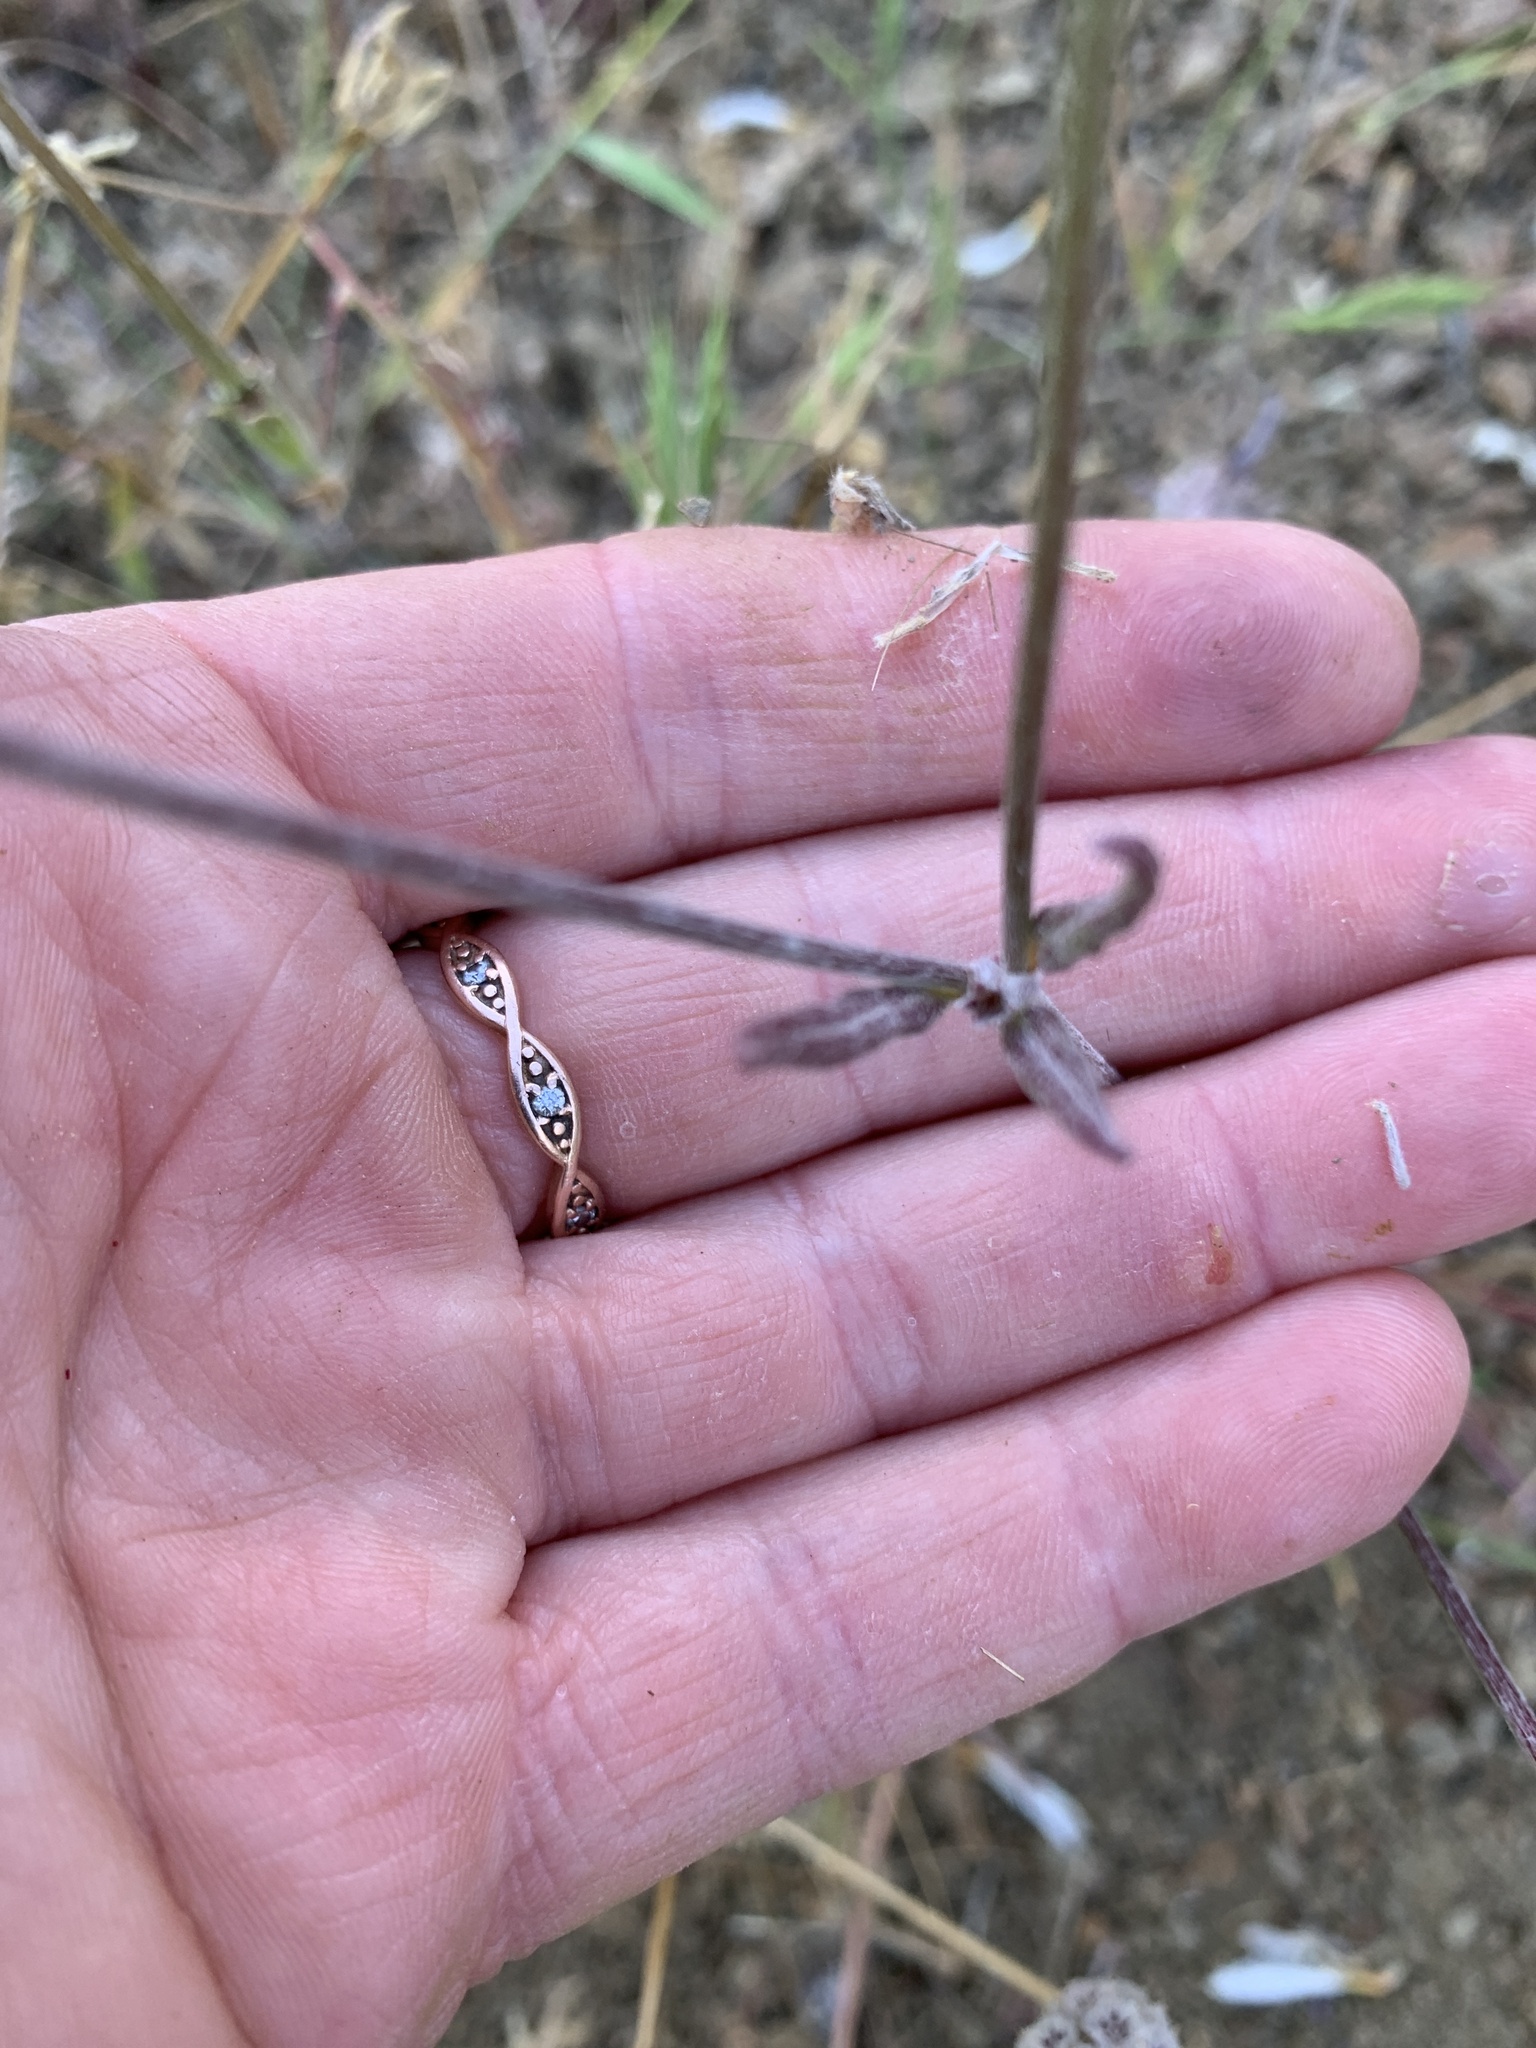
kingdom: Plantae
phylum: Tracheophyta
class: Magnoliopsida
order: Caryophyllales
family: Polygonaceae
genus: Chorizanthe
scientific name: Chorizanthe membranacea
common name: Pink spineflower
